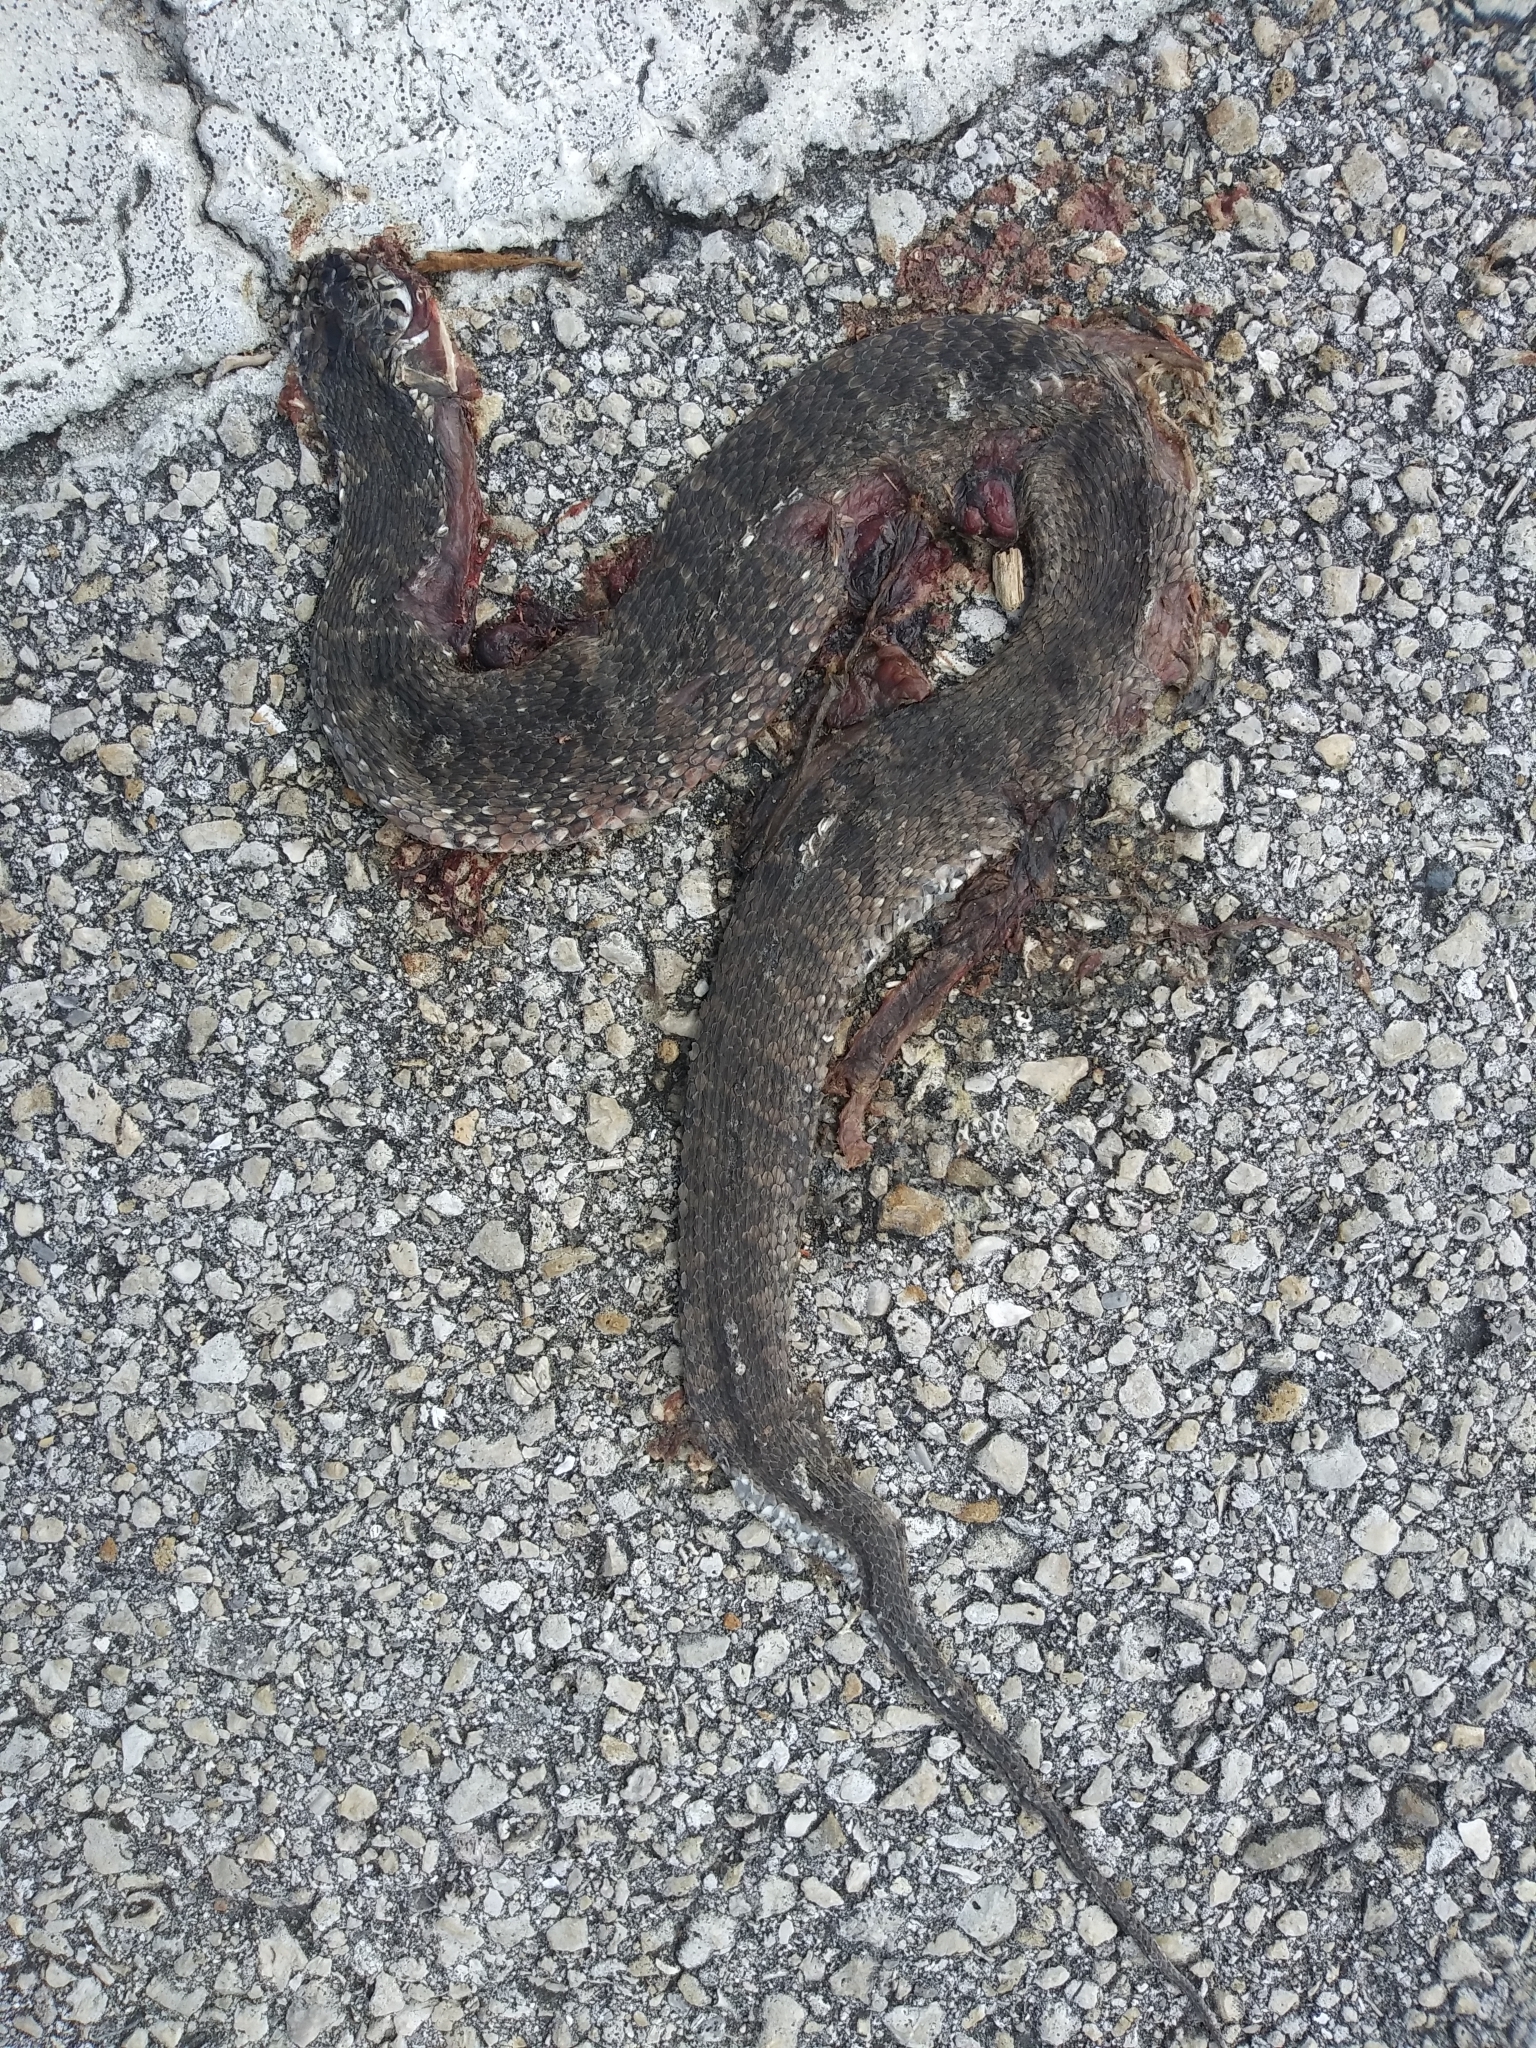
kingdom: Animalia
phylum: Chordata
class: Squamata
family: Colubridae
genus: Nerodia
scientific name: Nerodia fasciata
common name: Southern water snake
